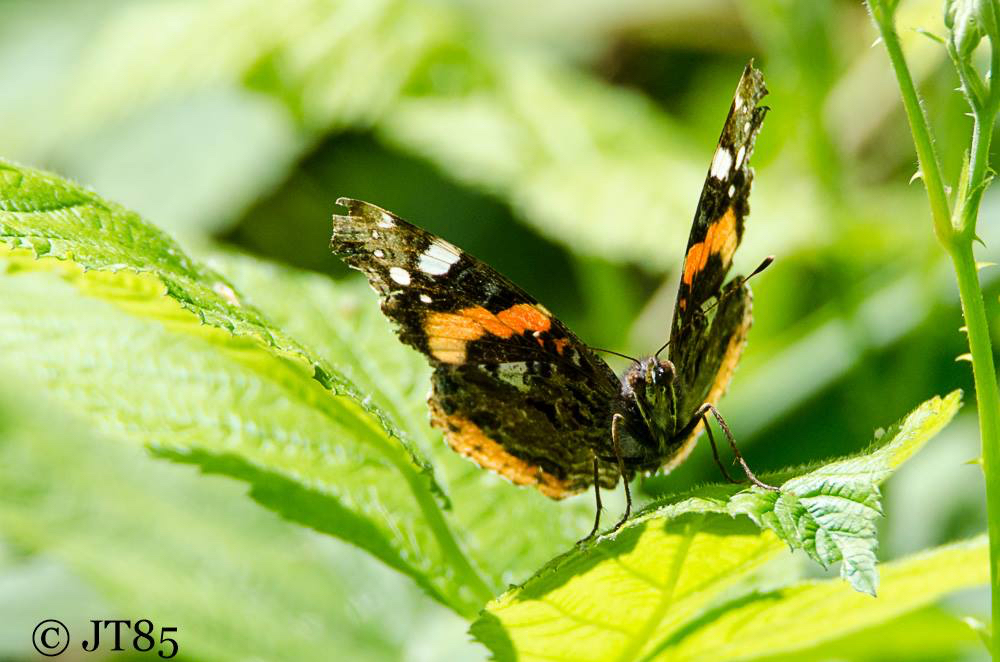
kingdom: Animalia
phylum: Arthropoda
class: Insecta
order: Lepidoptera
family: Nymphalidae
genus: Vanessa
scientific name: Vanessa atalanta
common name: Red admiral
